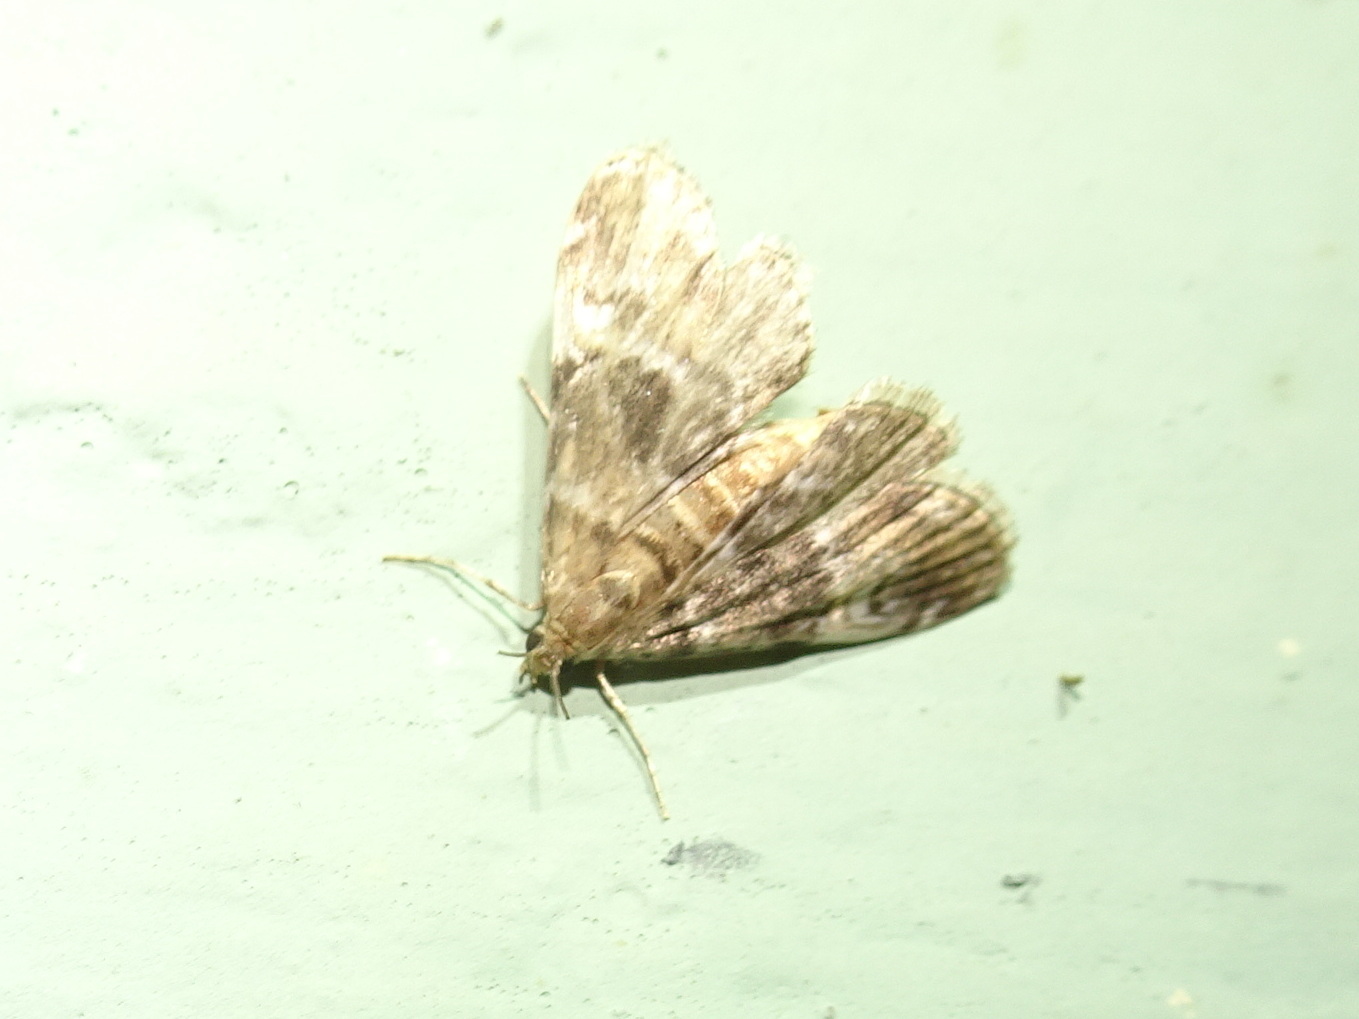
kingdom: Animalia
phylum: Arthropoda
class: Insecta
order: Lepidoptera
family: Crambidae
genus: Elophila
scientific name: Elophila obliteralis
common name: Waterlily leafcutter moth
